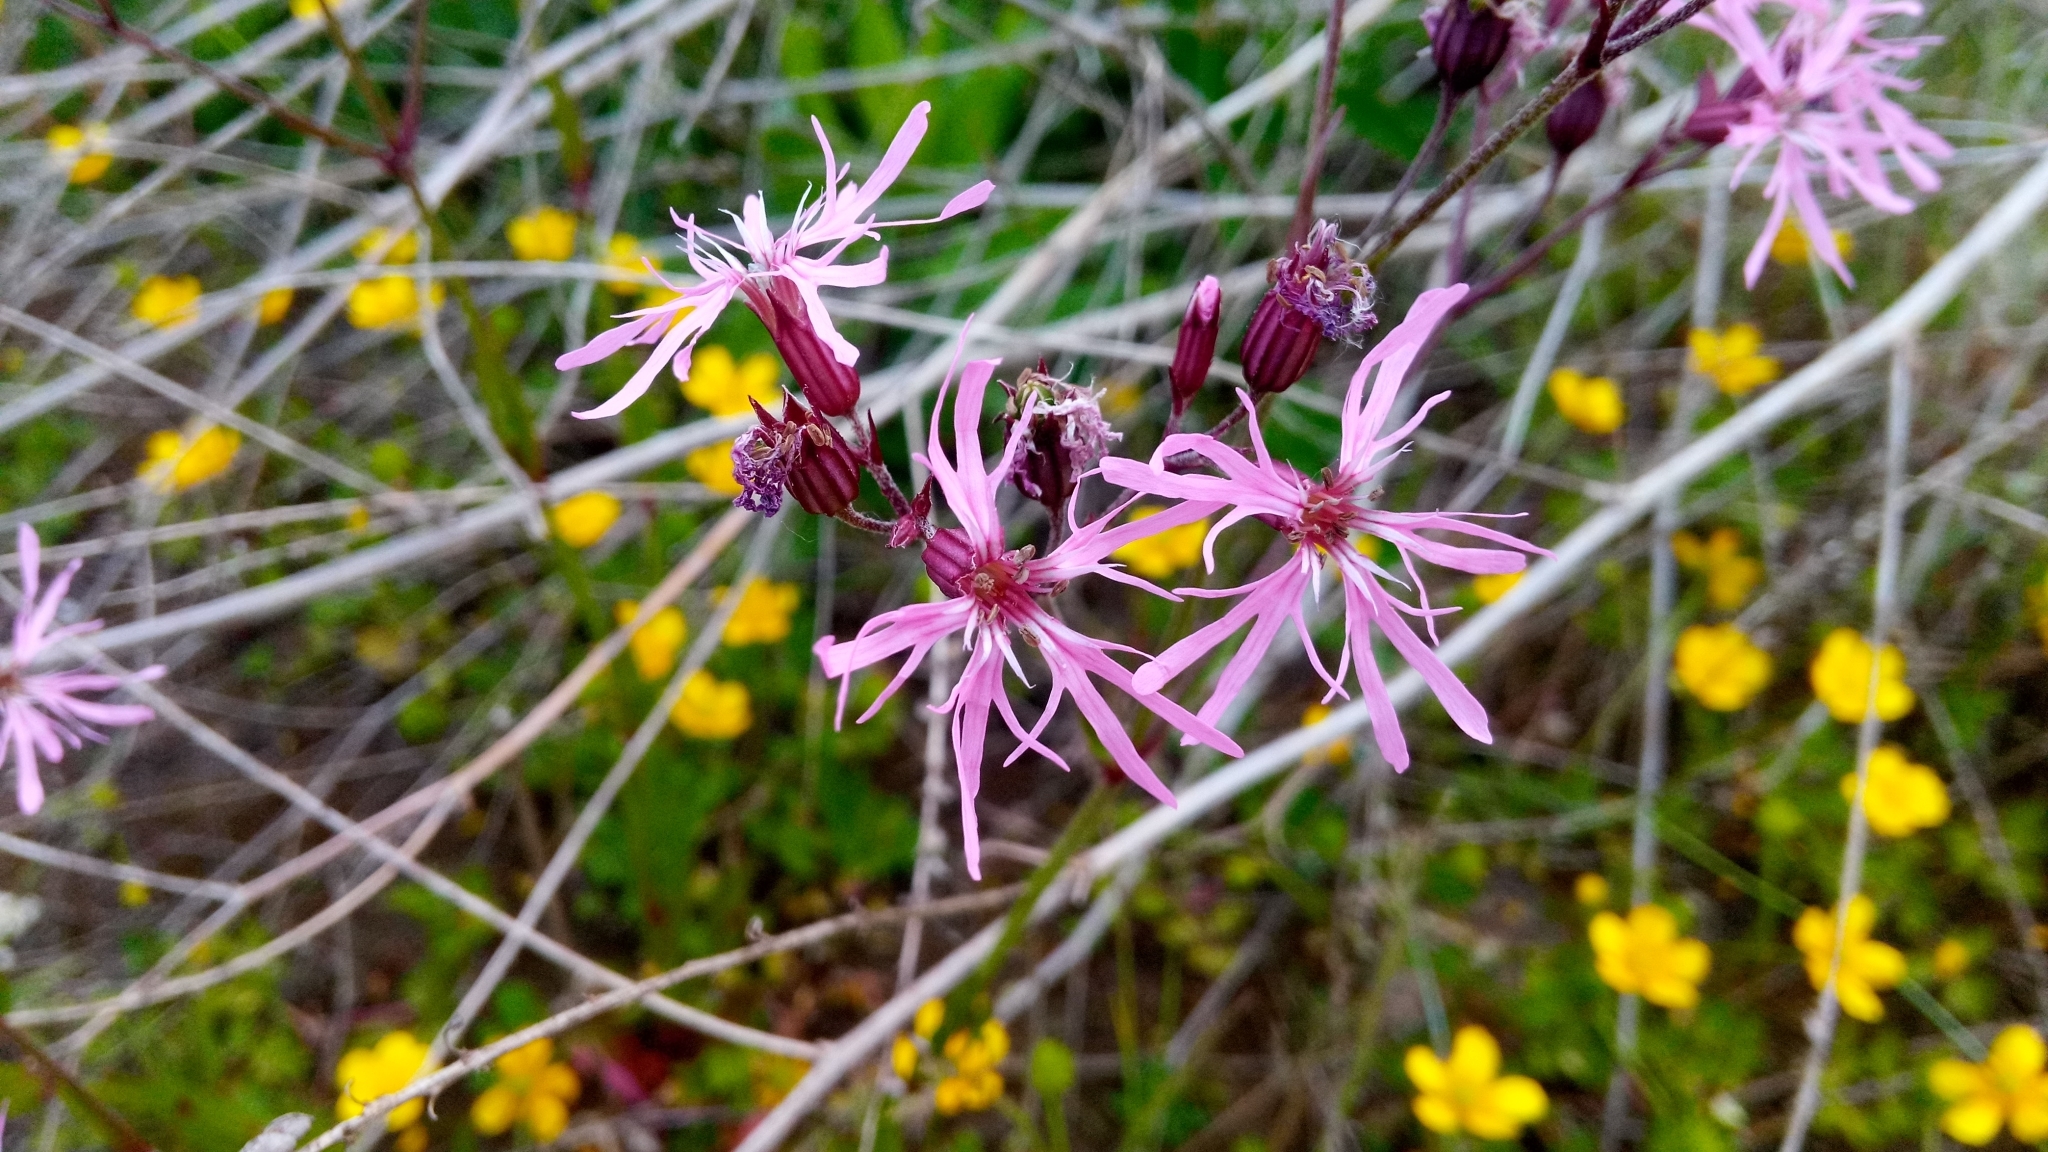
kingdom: Plantae
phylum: Tracheophyta
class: Magnoliopsida
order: Caryophyllales
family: Caryophyllaceae
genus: Silene
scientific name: Silene flos-cuculi
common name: Ragged-robin
